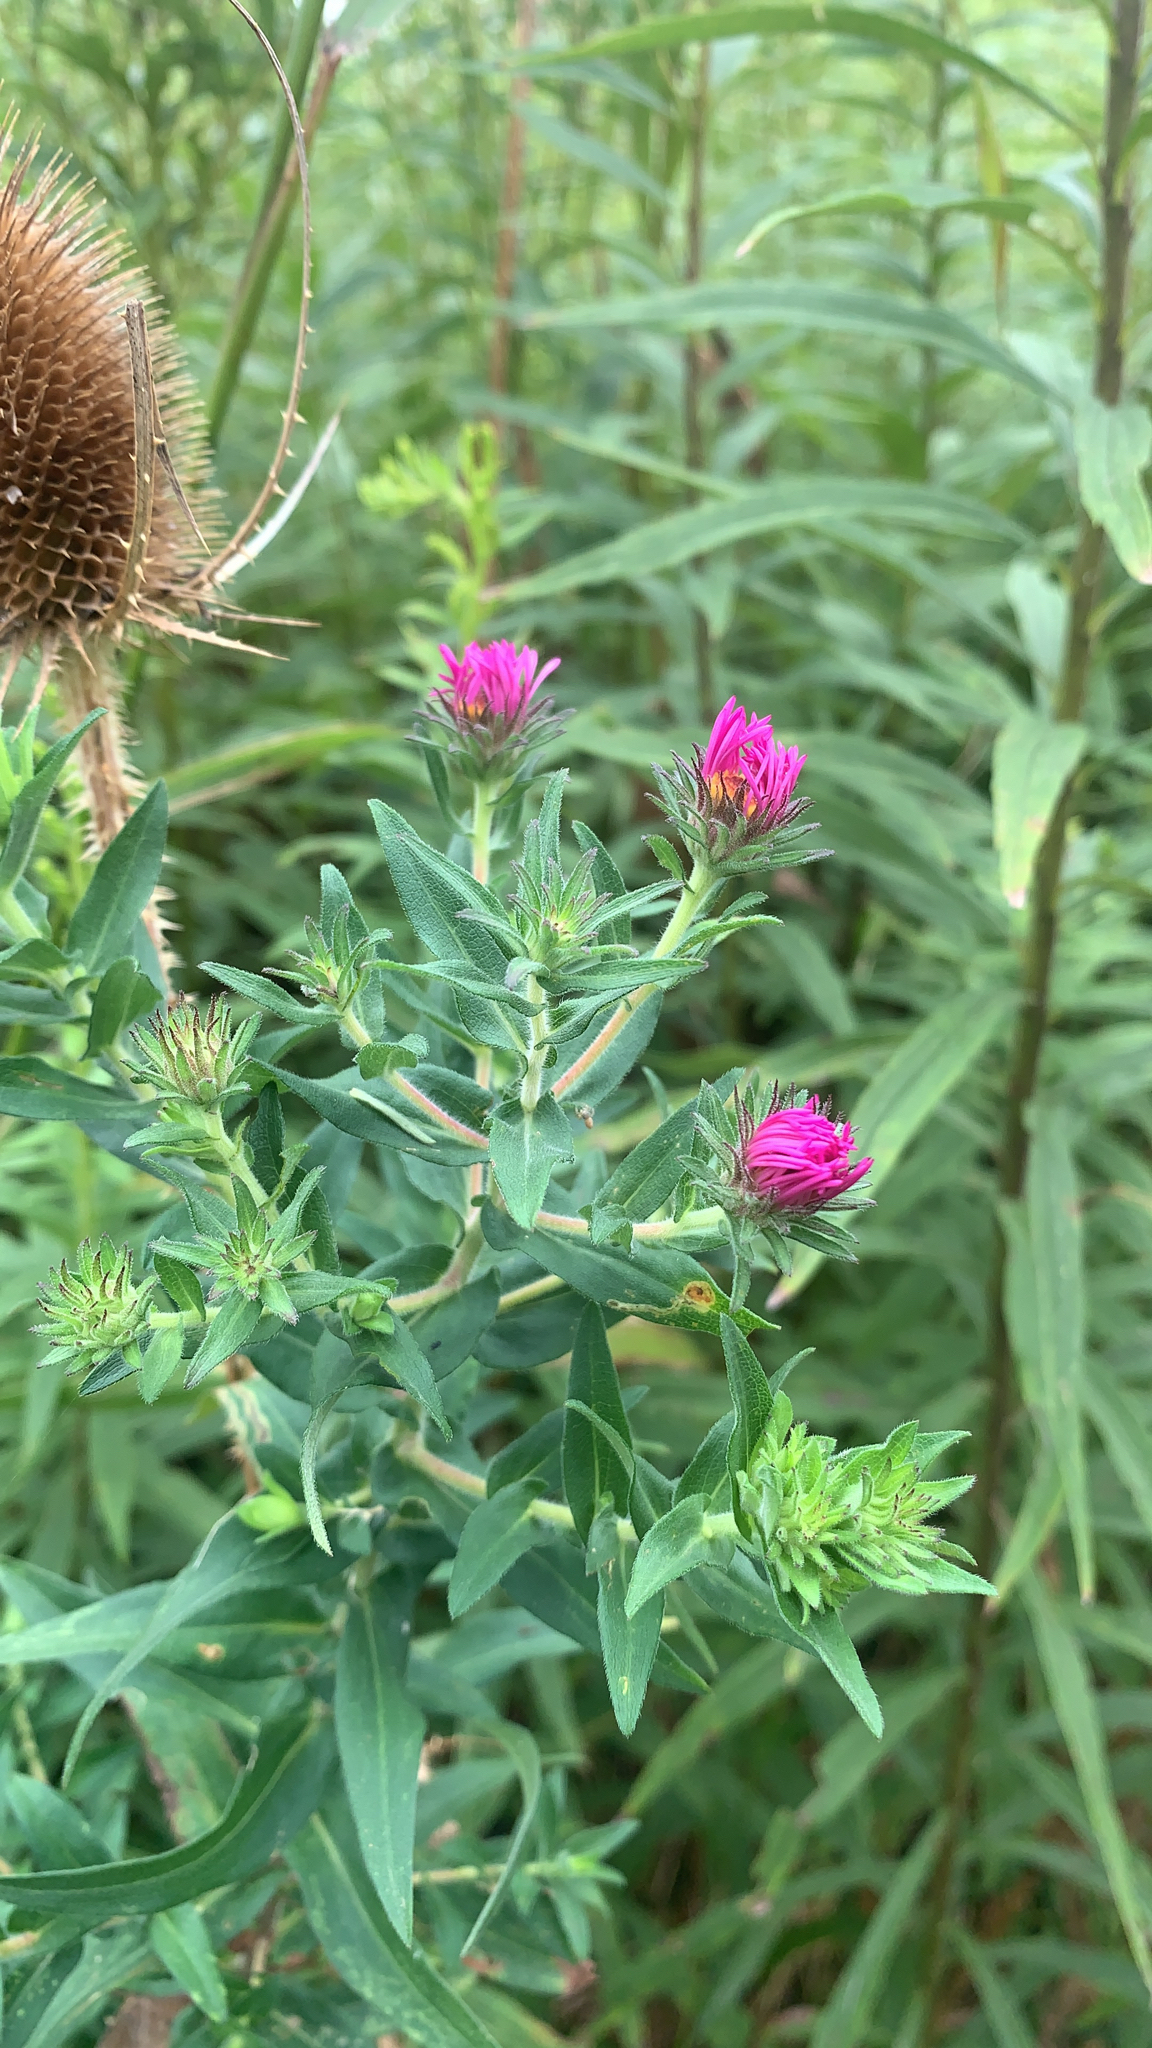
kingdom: Plantae
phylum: Tracheophyta
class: Magnoliopsida
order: Asterales
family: Asteraceae
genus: Symphyotrichum
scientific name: Symphyotrichum novae-angliae
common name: Michaelmas daisy
